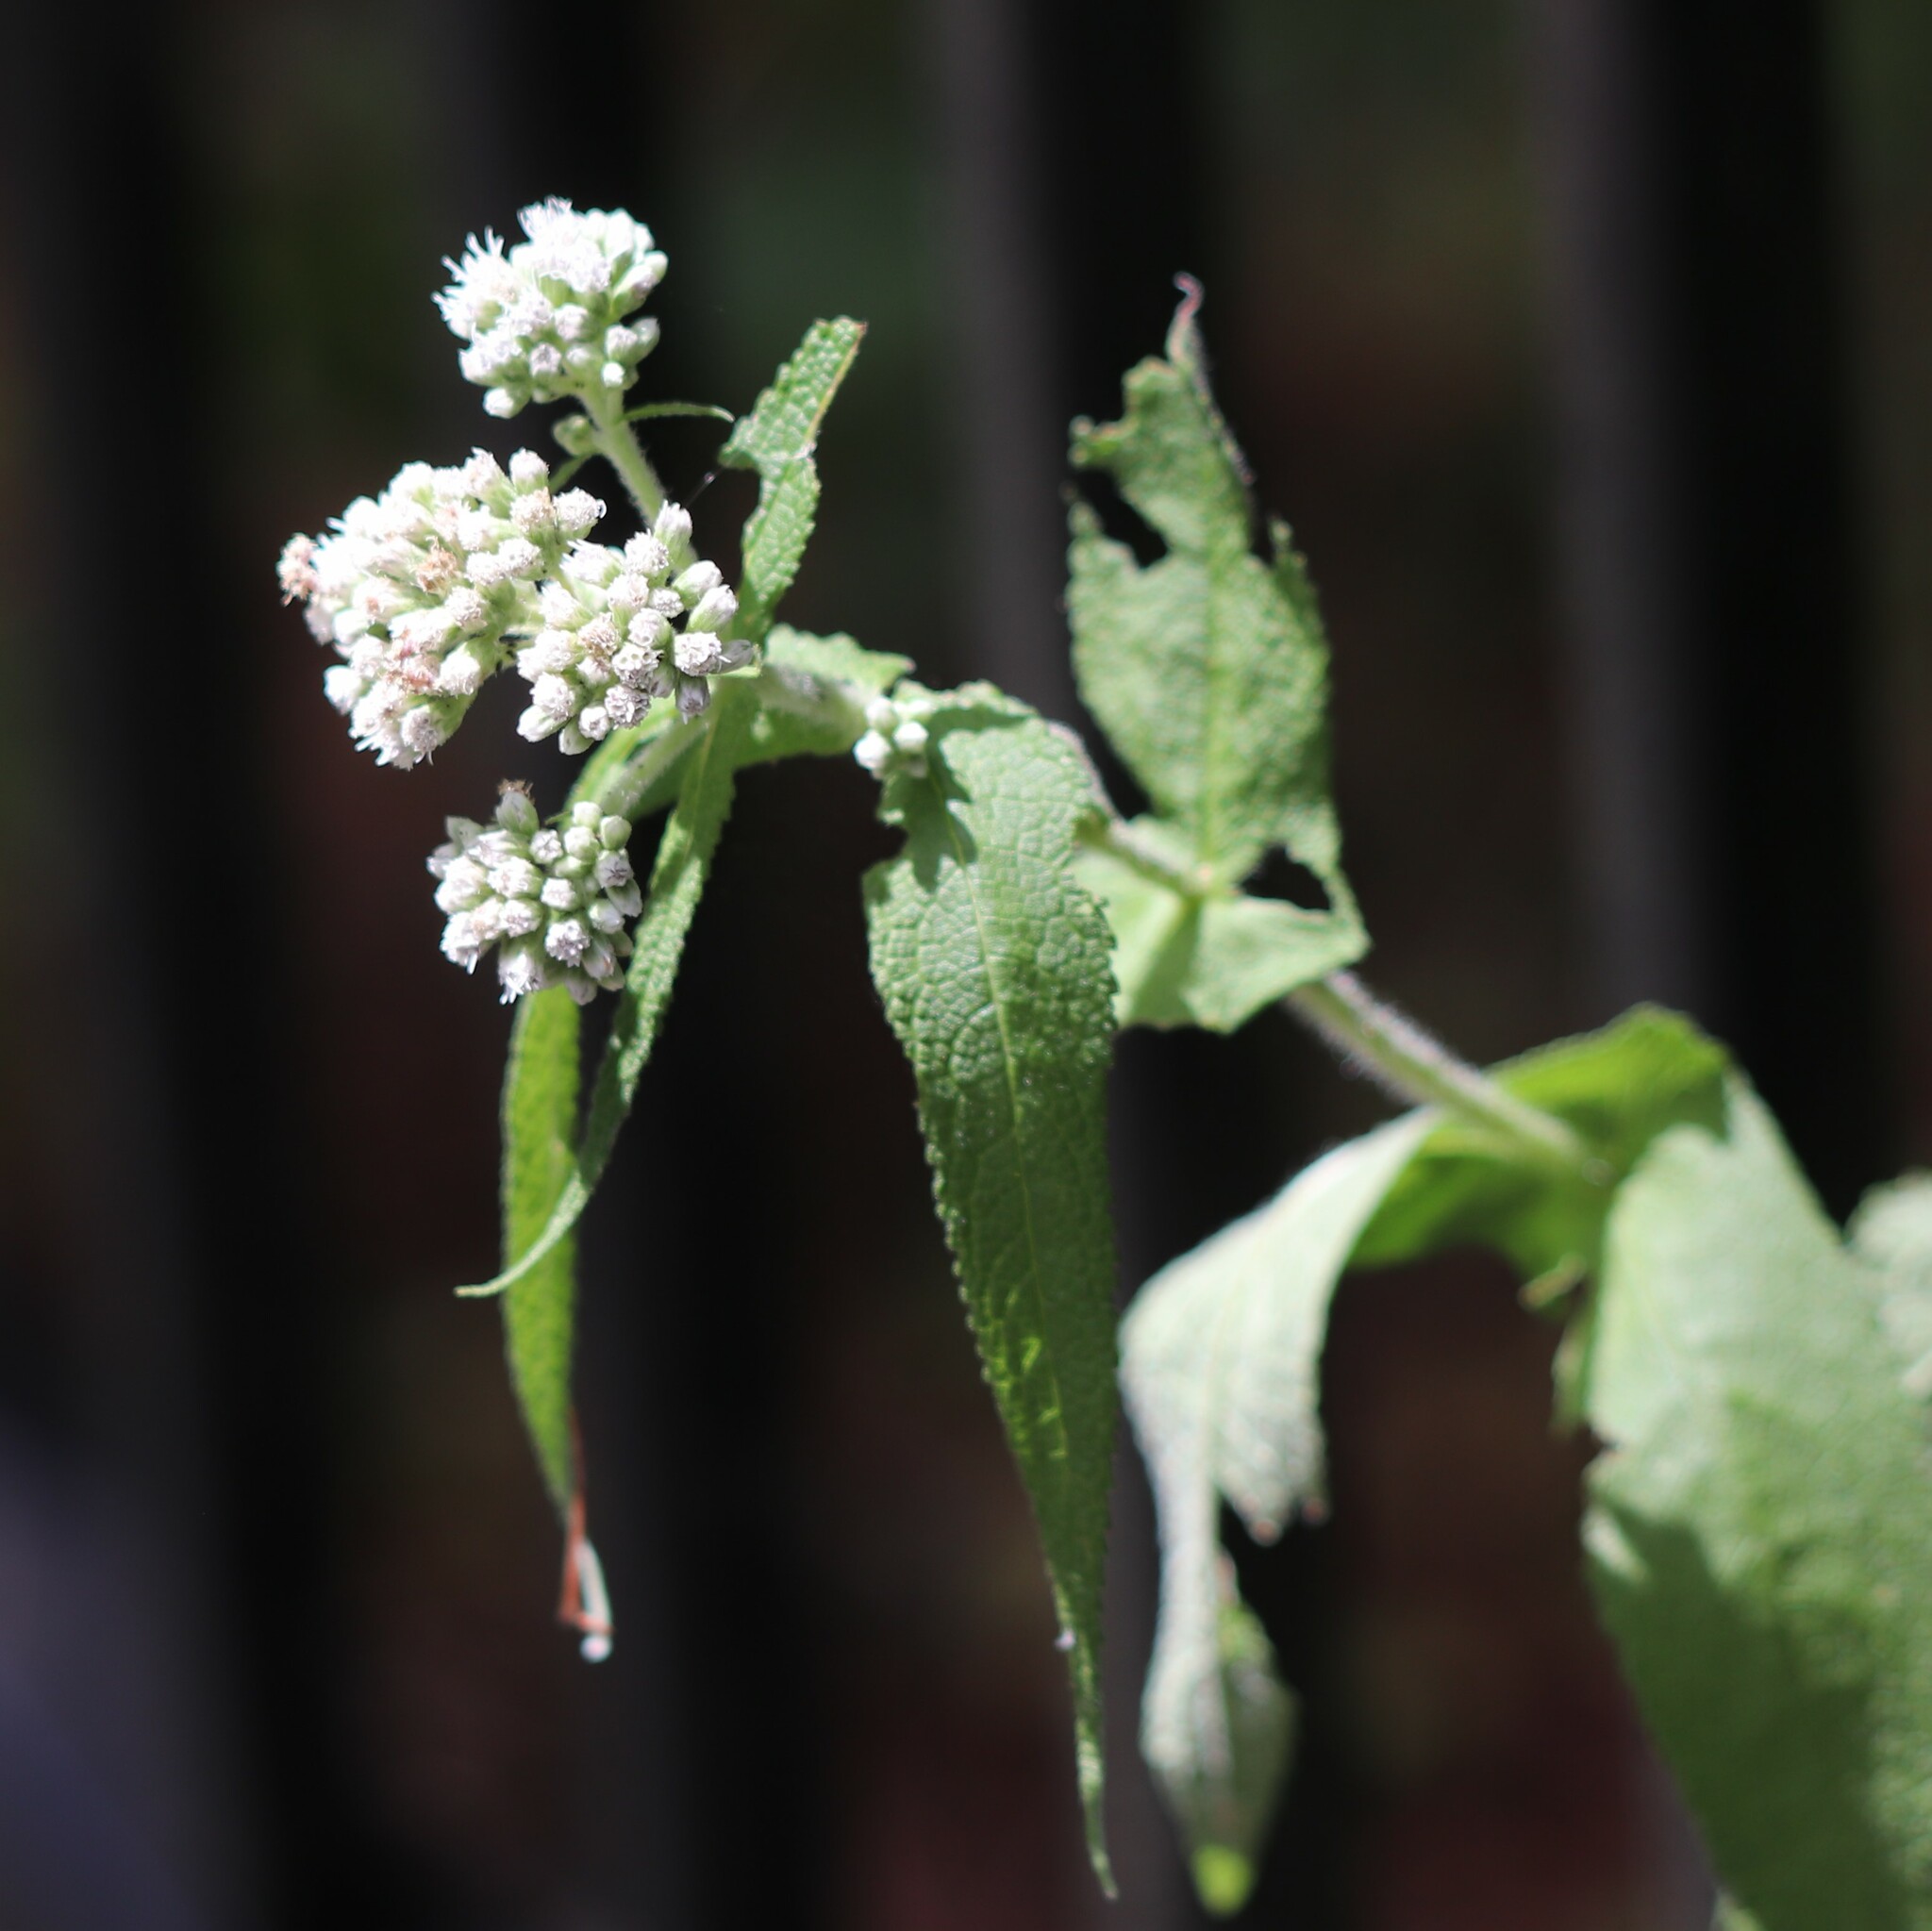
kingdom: Plantae
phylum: Tracheophyta
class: Magnoliopsida
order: Asterales
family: Asteraceae
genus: Eupatorium
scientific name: Eupatorium perfoliatum
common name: Boneset
